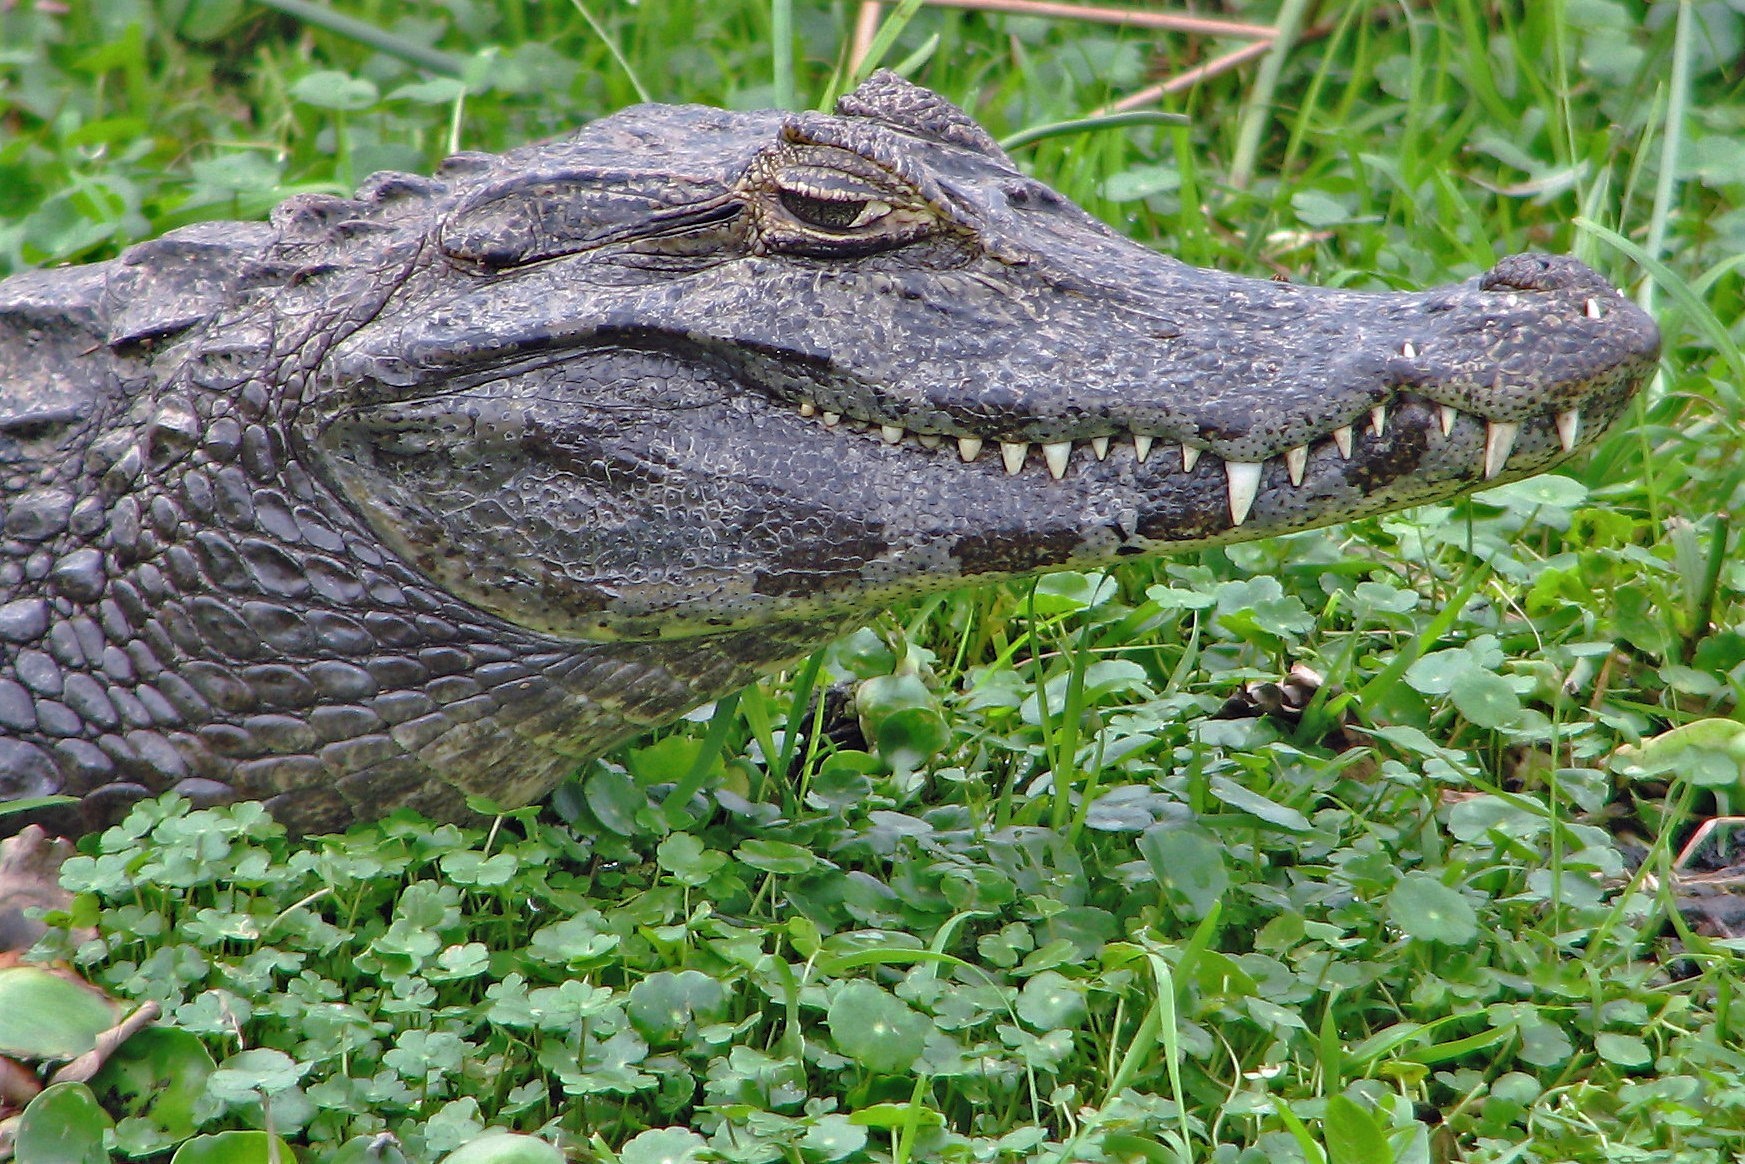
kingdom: Animalia
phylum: Chordata
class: Crocodylia
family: Alligatoridae
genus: Caiman
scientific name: Caiman yacare
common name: Yacare caiman
